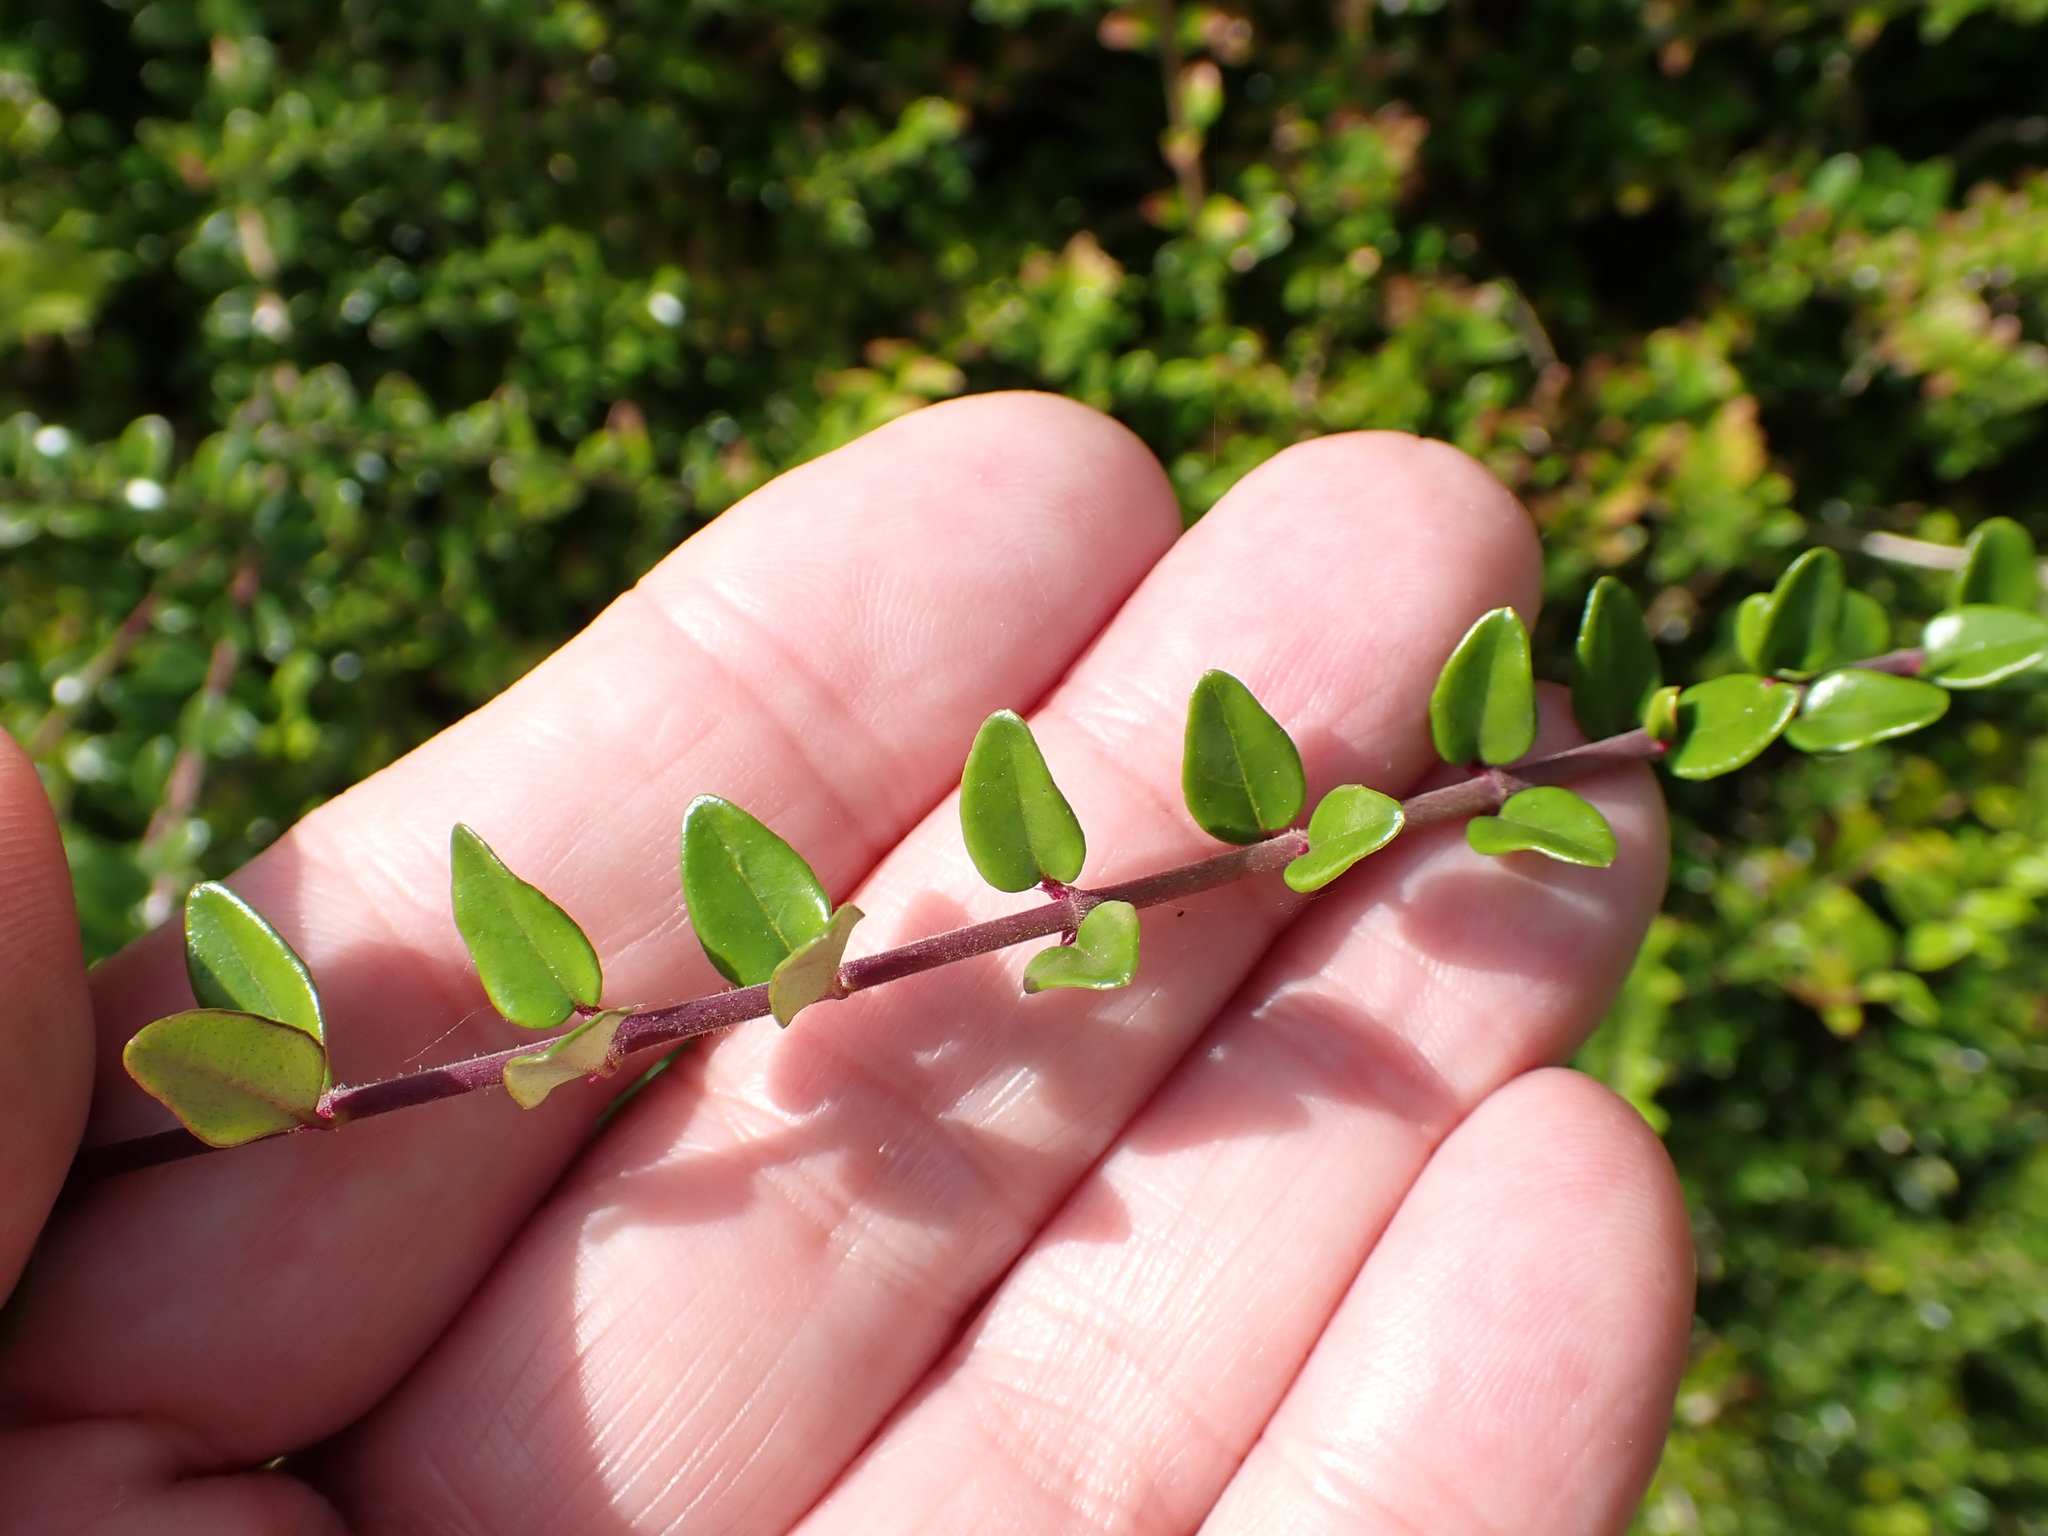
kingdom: Plantae
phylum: Tracheophyta
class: Magnoliopsida
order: Dipsacales
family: Caprifoliaceae
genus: Lonicera
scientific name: Lonicera ligustrina
